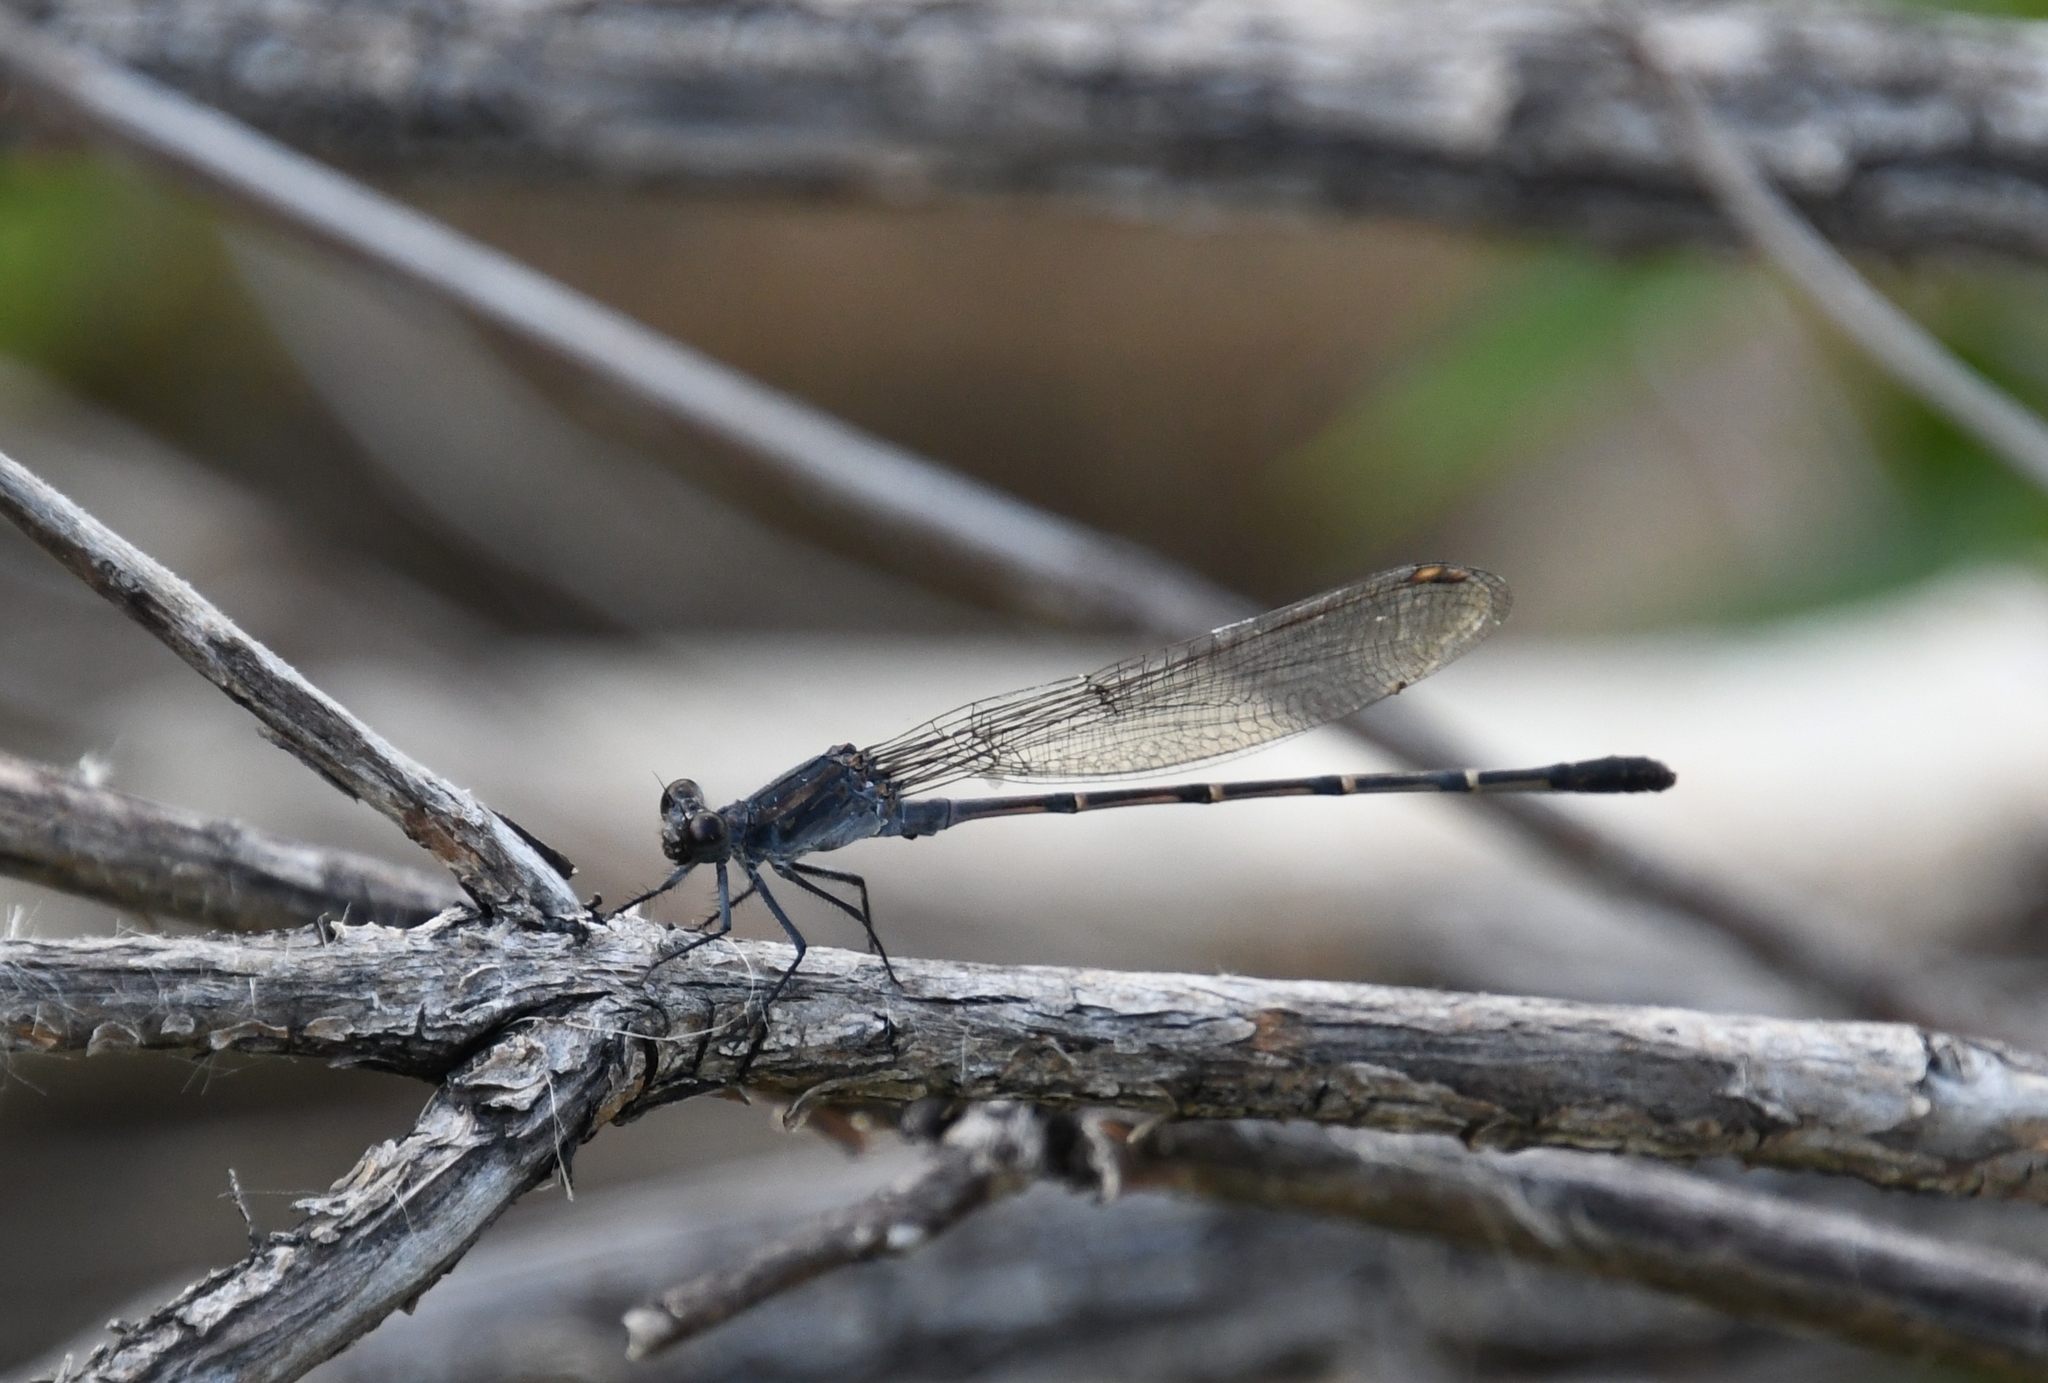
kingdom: Animalia
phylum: Arthropoda
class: Insecta
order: Odonata
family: Coenagrionidae
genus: Argia
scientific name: Argia lugens
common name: Sooty dancer
